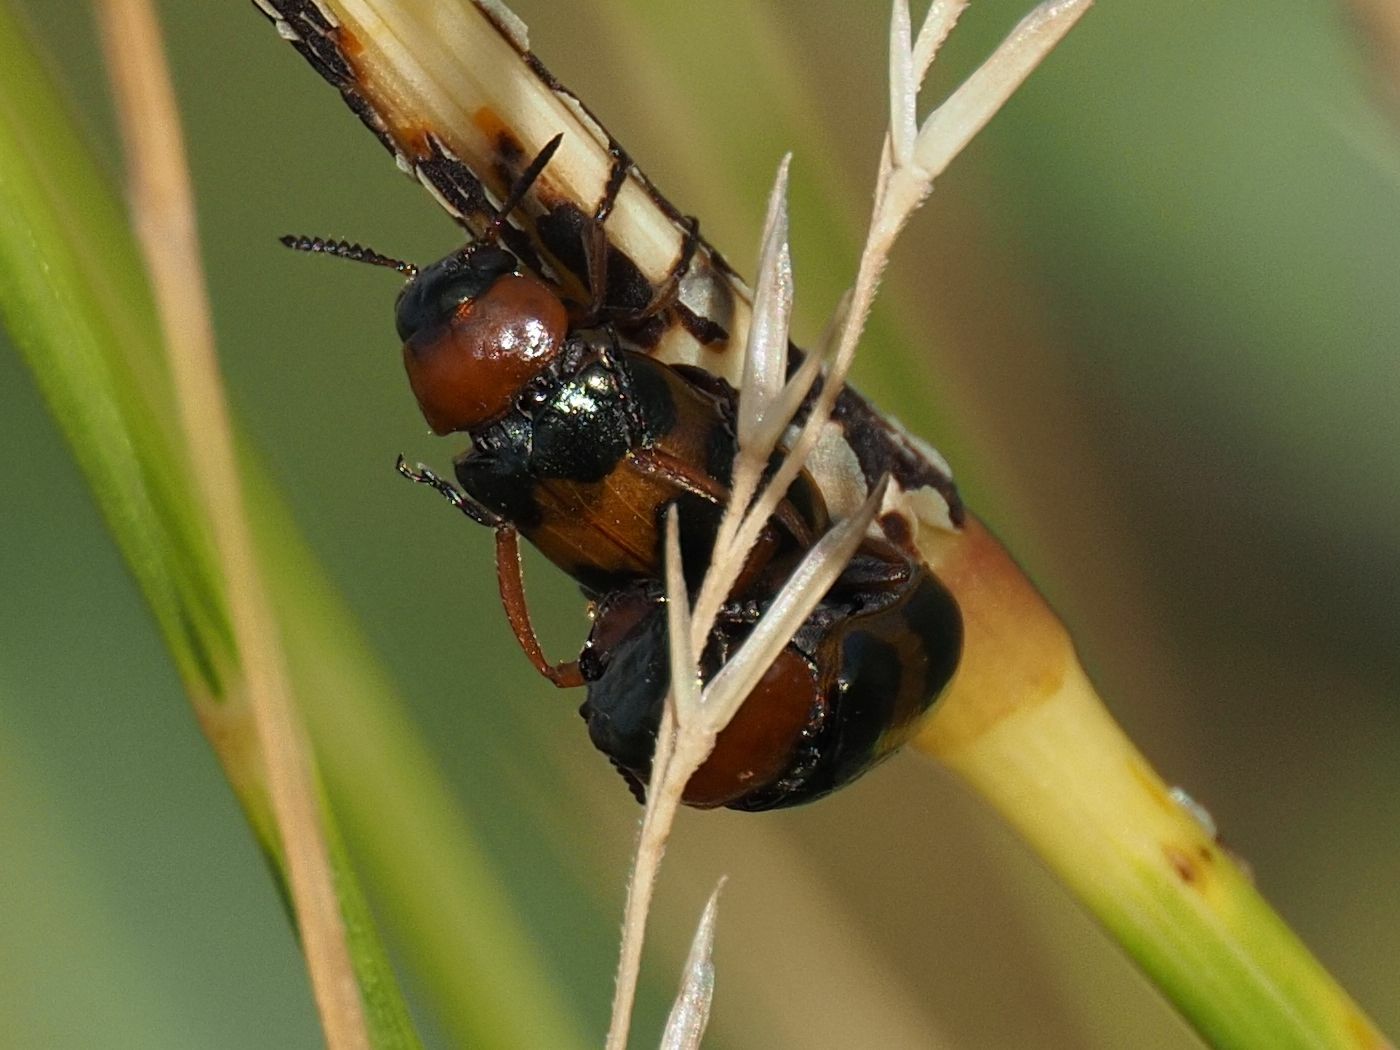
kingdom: Animalia
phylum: Arthropoda
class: Insecta
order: Coleoptera
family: Chrysomelidae
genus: Coptocephala
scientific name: Coptocephala unifasciata
